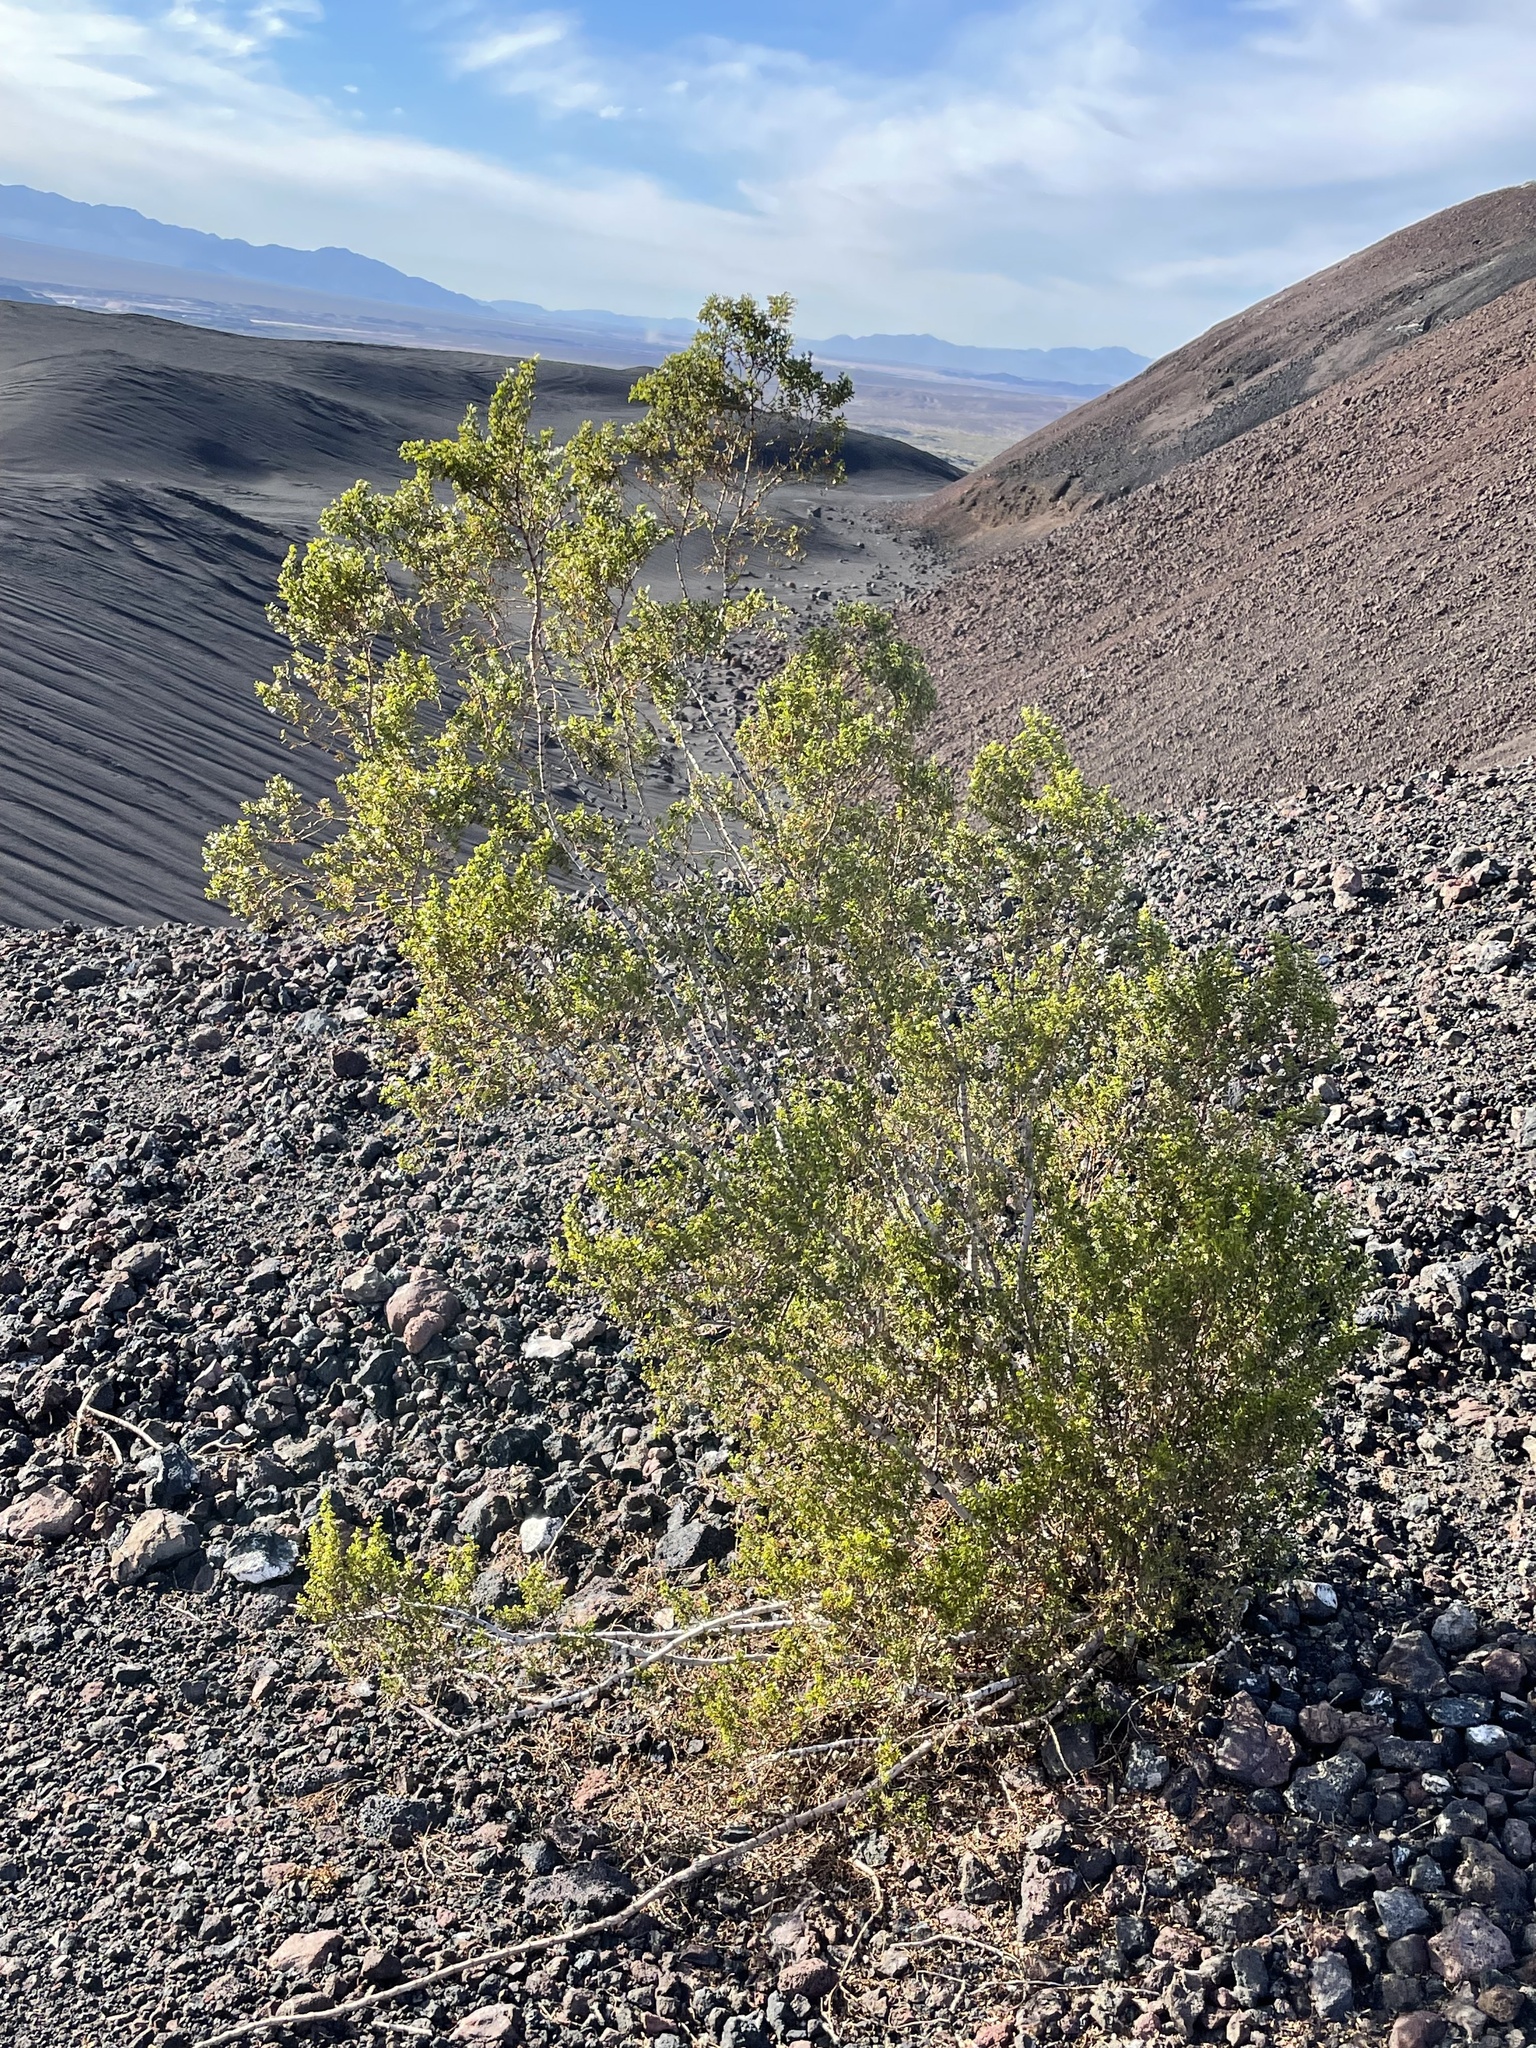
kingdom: Plantae
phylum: Tracheophyta
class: Magnoliopsida
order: Zygophyllales
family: Zygophyllaceae
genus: Larrea
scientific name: Larrea tridentata
